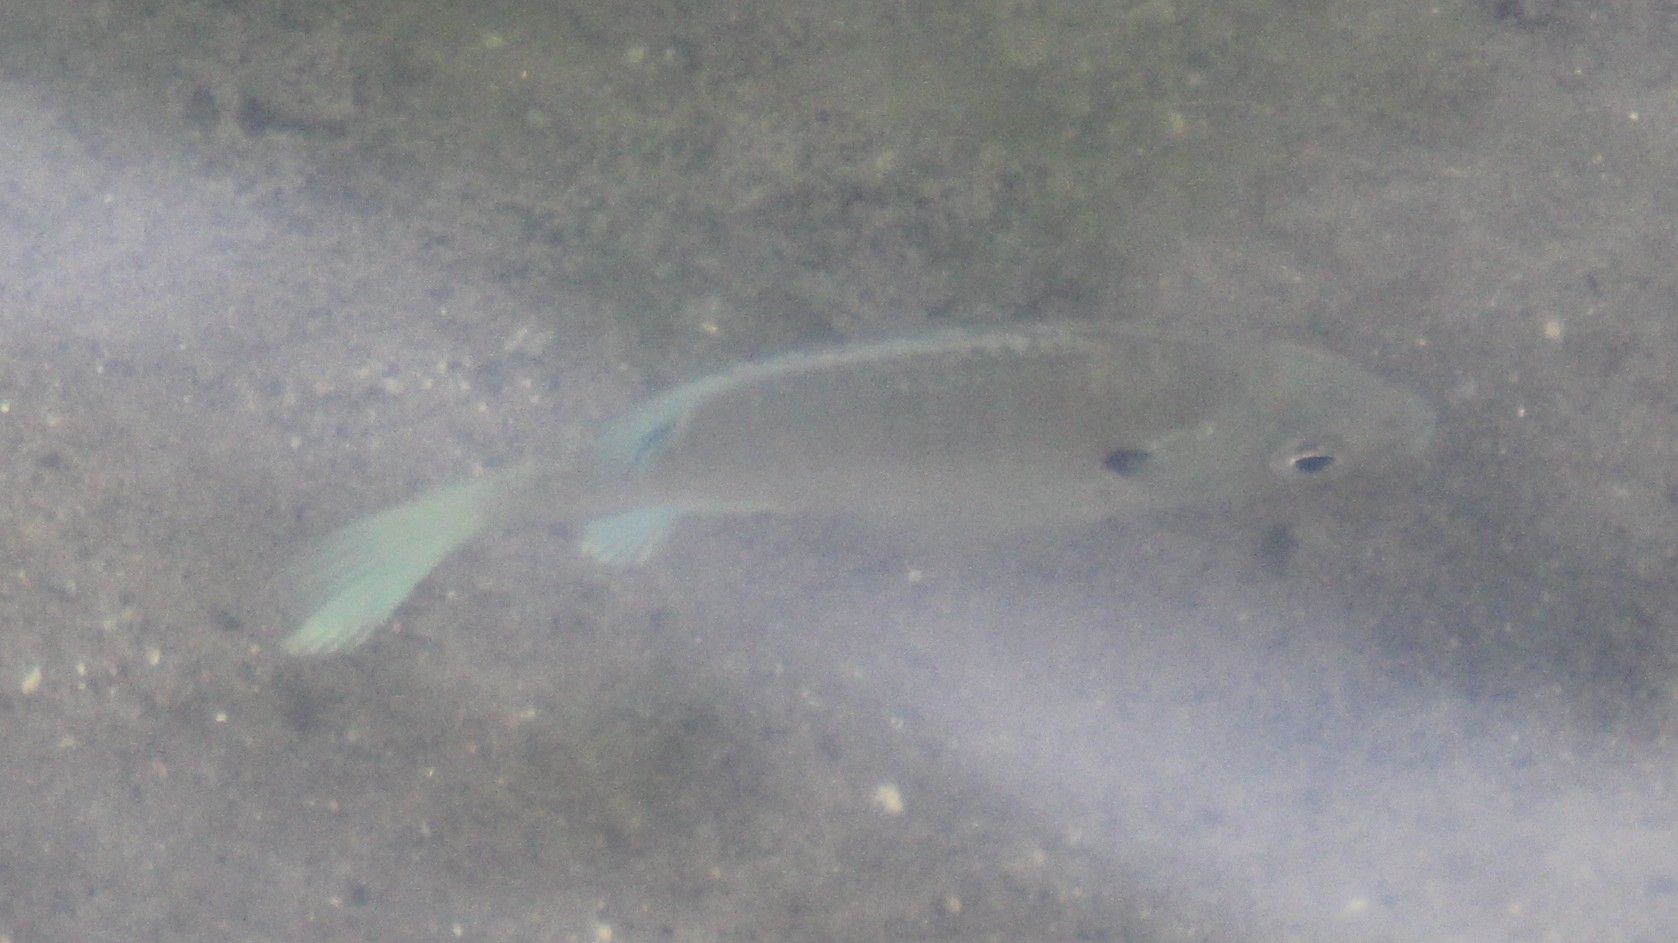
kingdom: Animalia
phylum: Chordata
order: Perciformes
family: Centrarchidae
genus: Lepomis
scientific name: Lepomis macrochirus
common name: Bluegill
